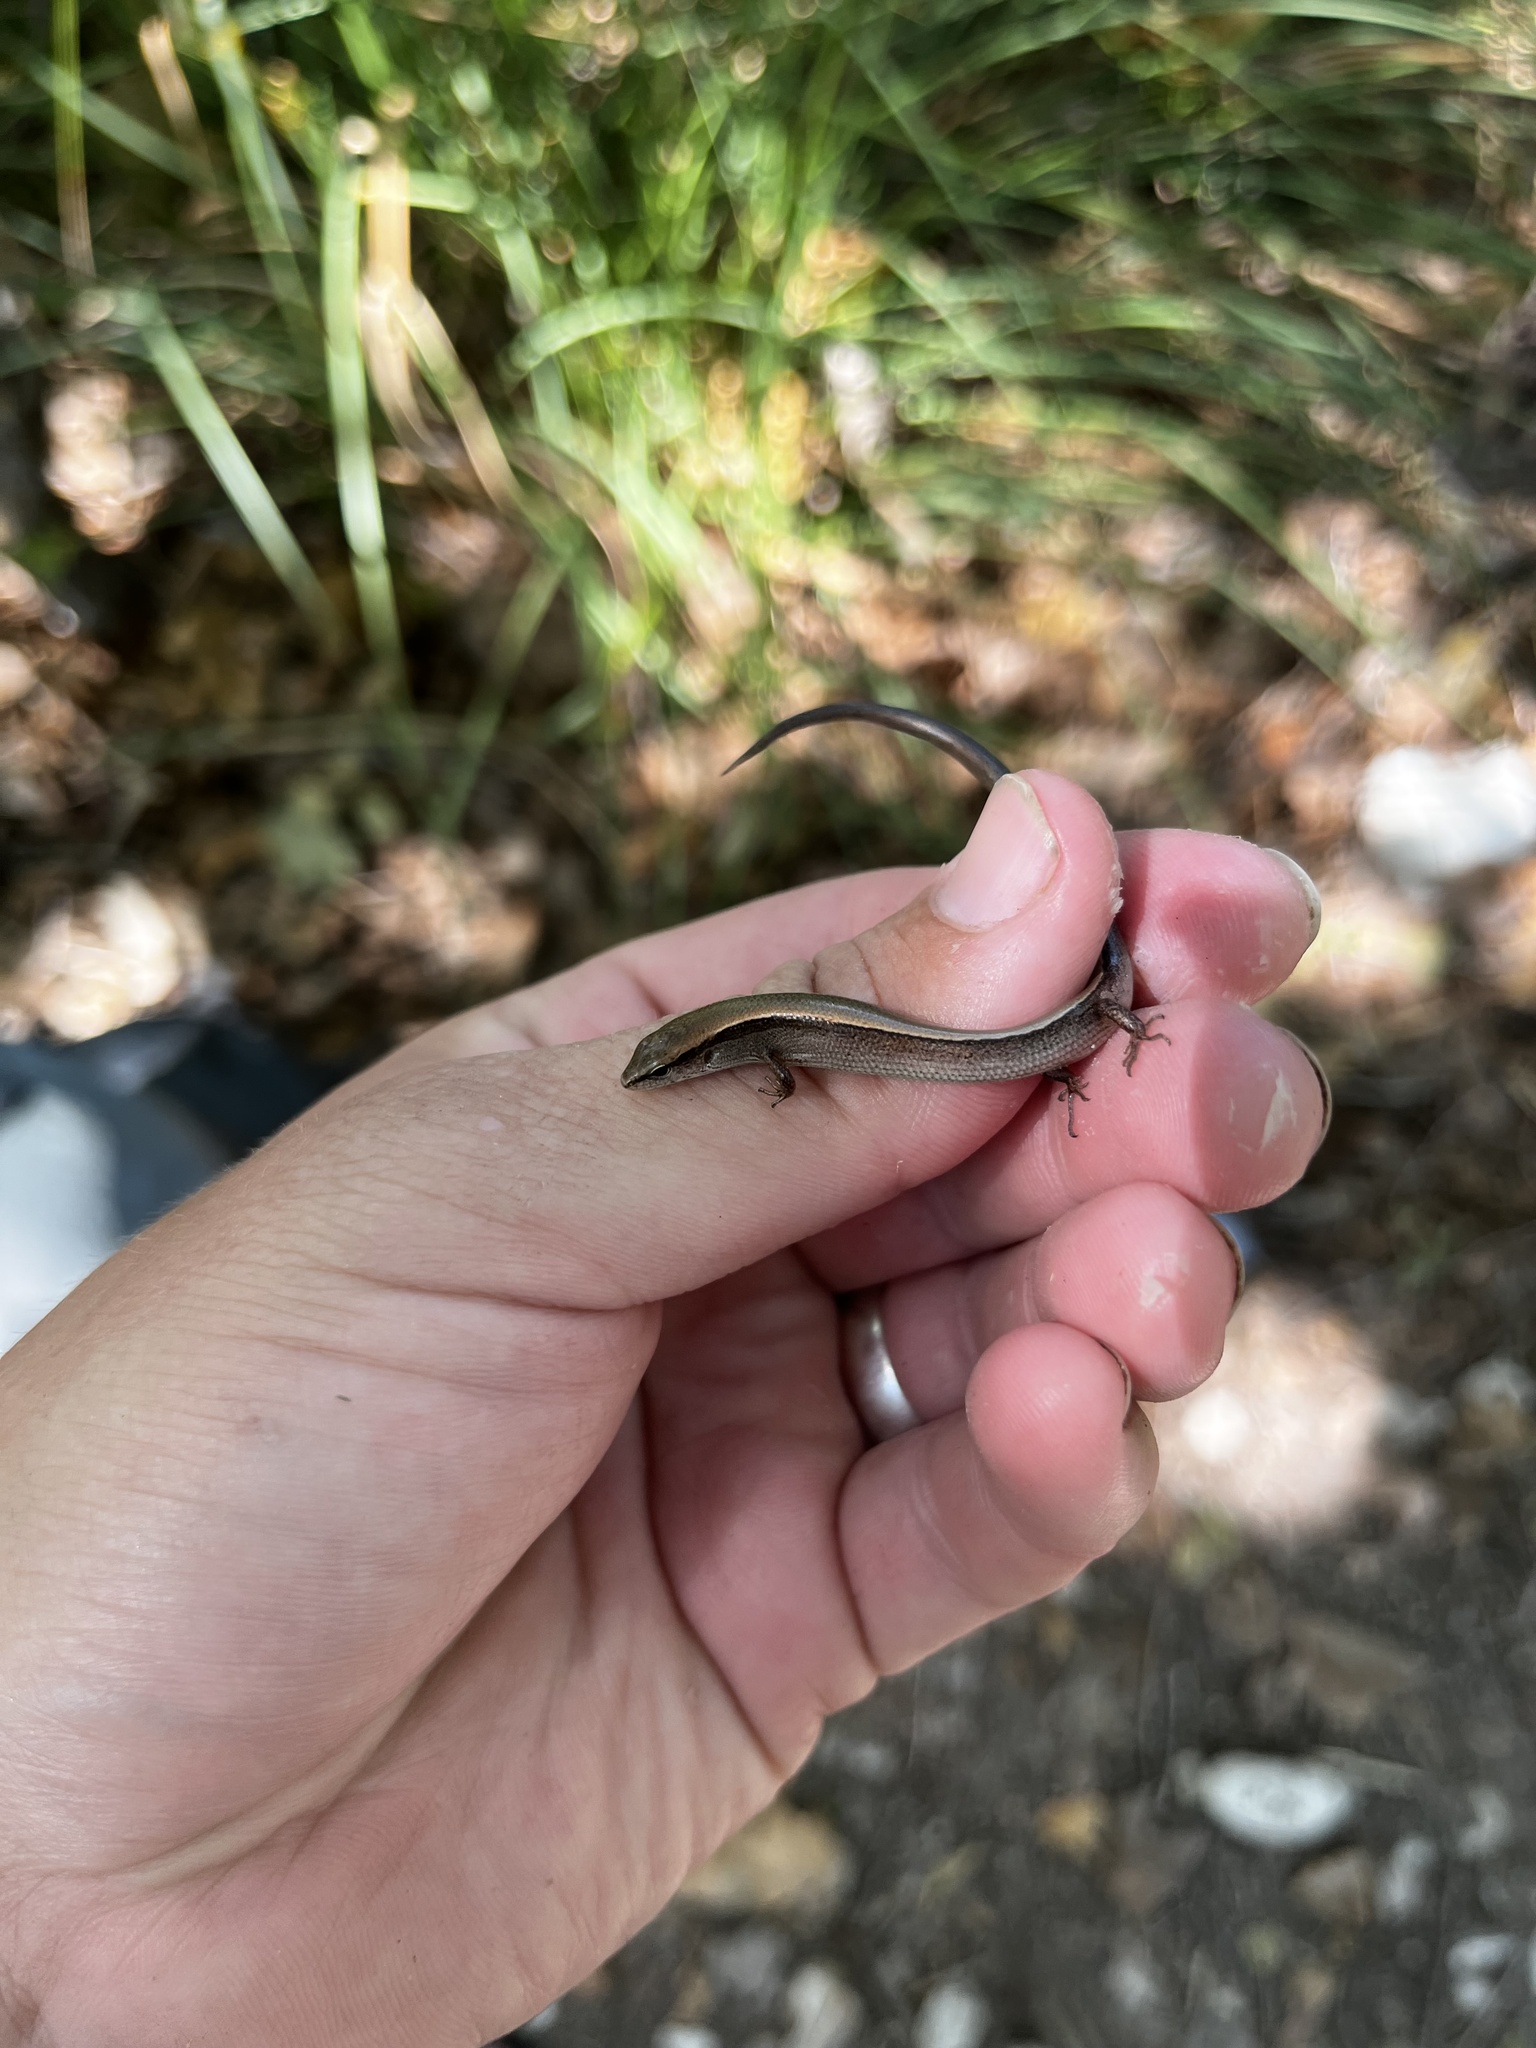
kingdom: Animalia
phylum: Chordata
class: Squamata
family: Scincidae
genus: Scincella
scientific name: Scincella lateralis
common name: Ground skink
